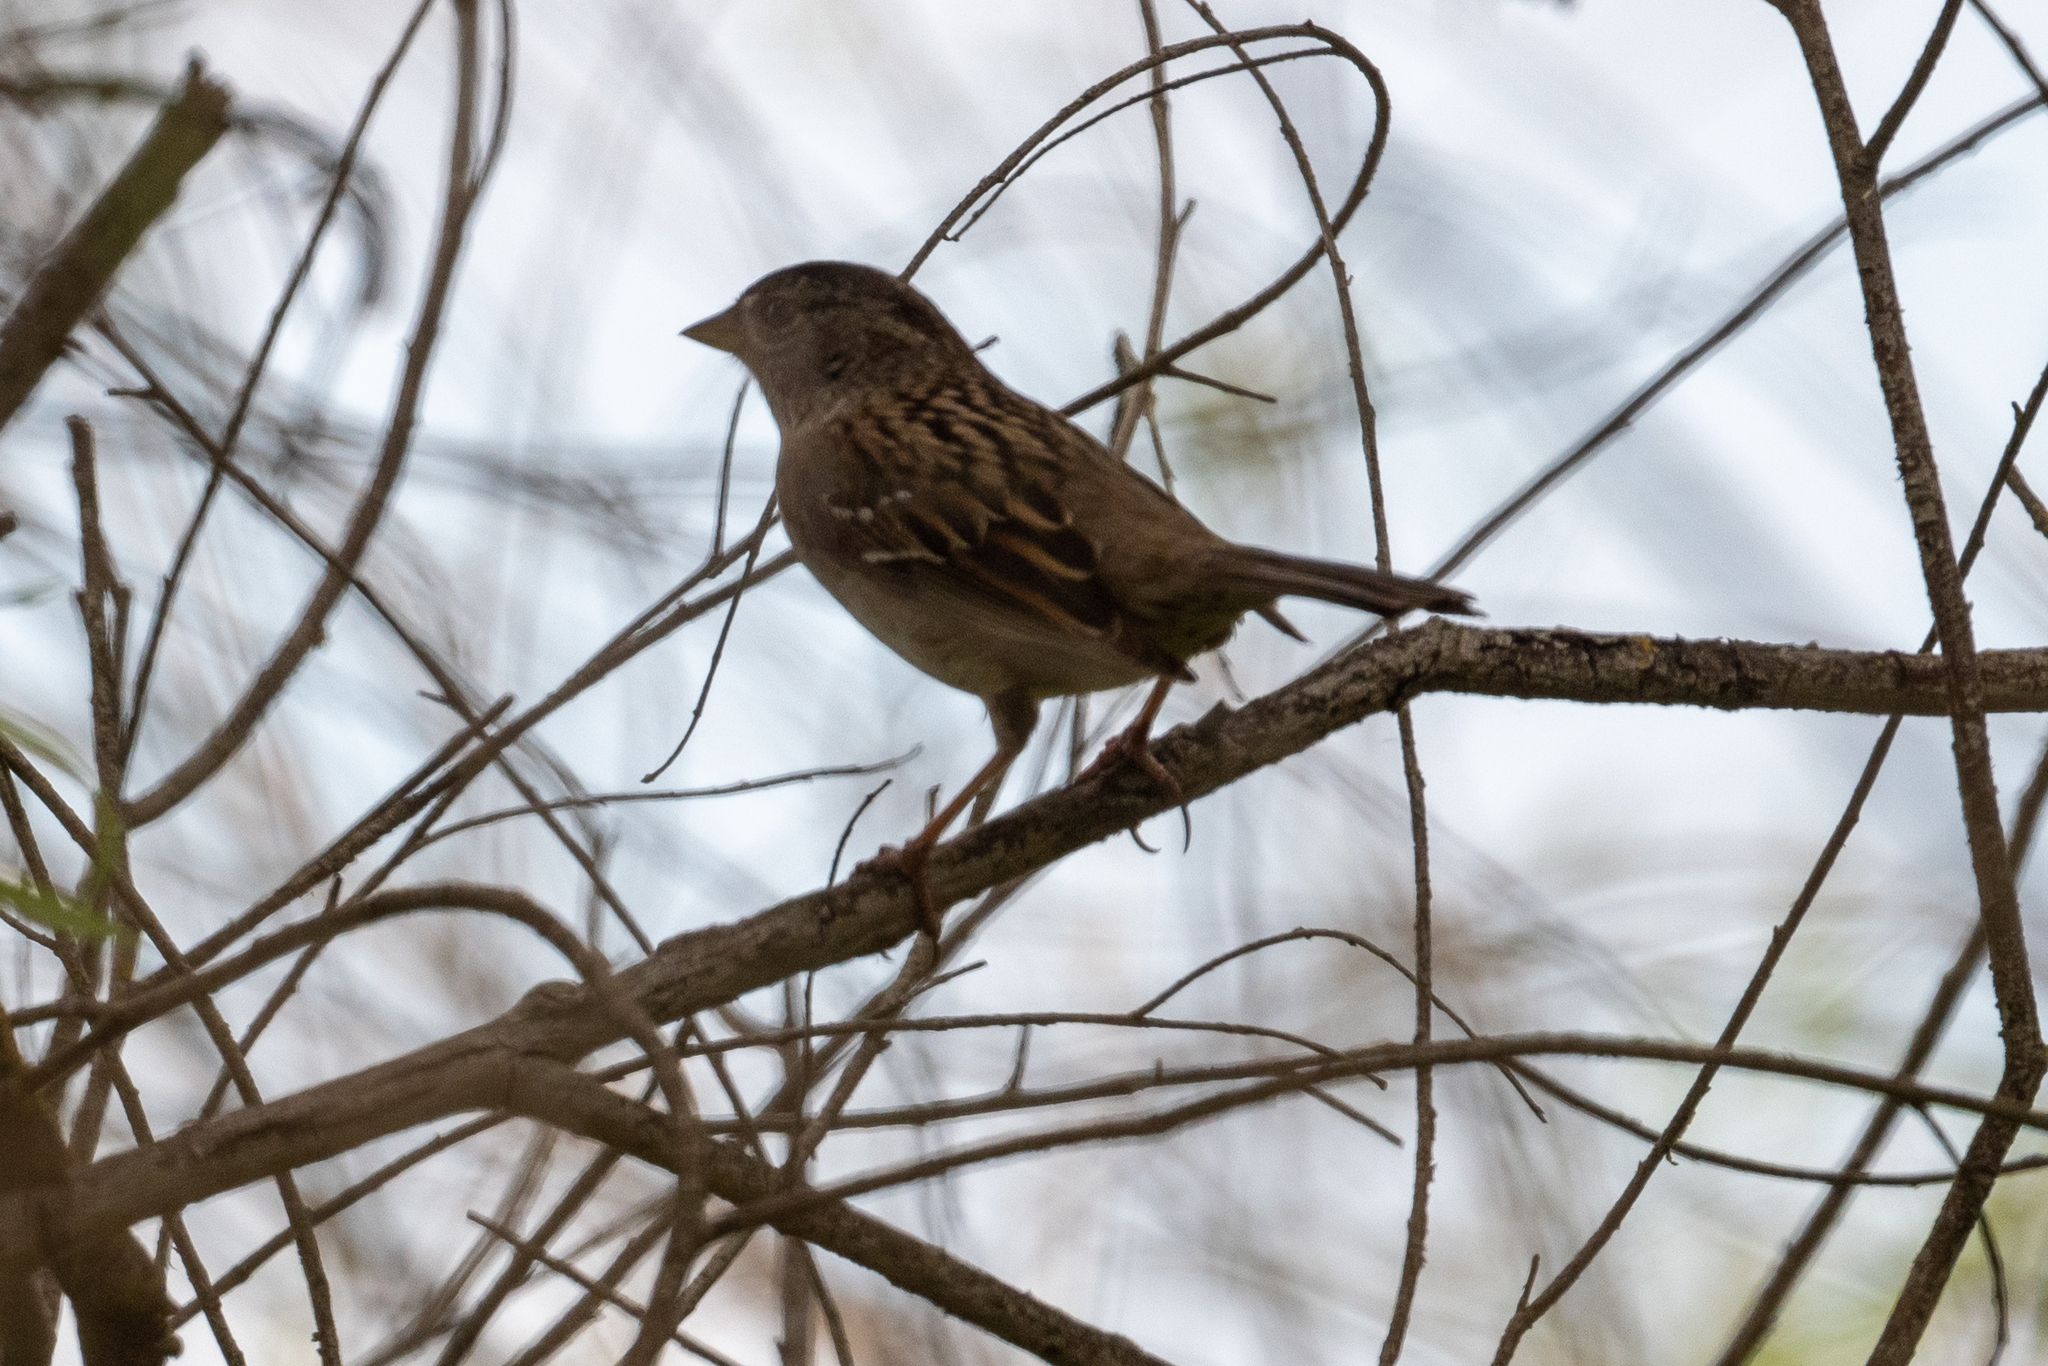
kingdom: Animalia
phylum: Chordata
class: Aves
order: Passeriformes
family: Passerellidae
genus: Zonotrichia
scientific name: Zonotrichia atricapilla
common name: Golden-crowned sparrow
